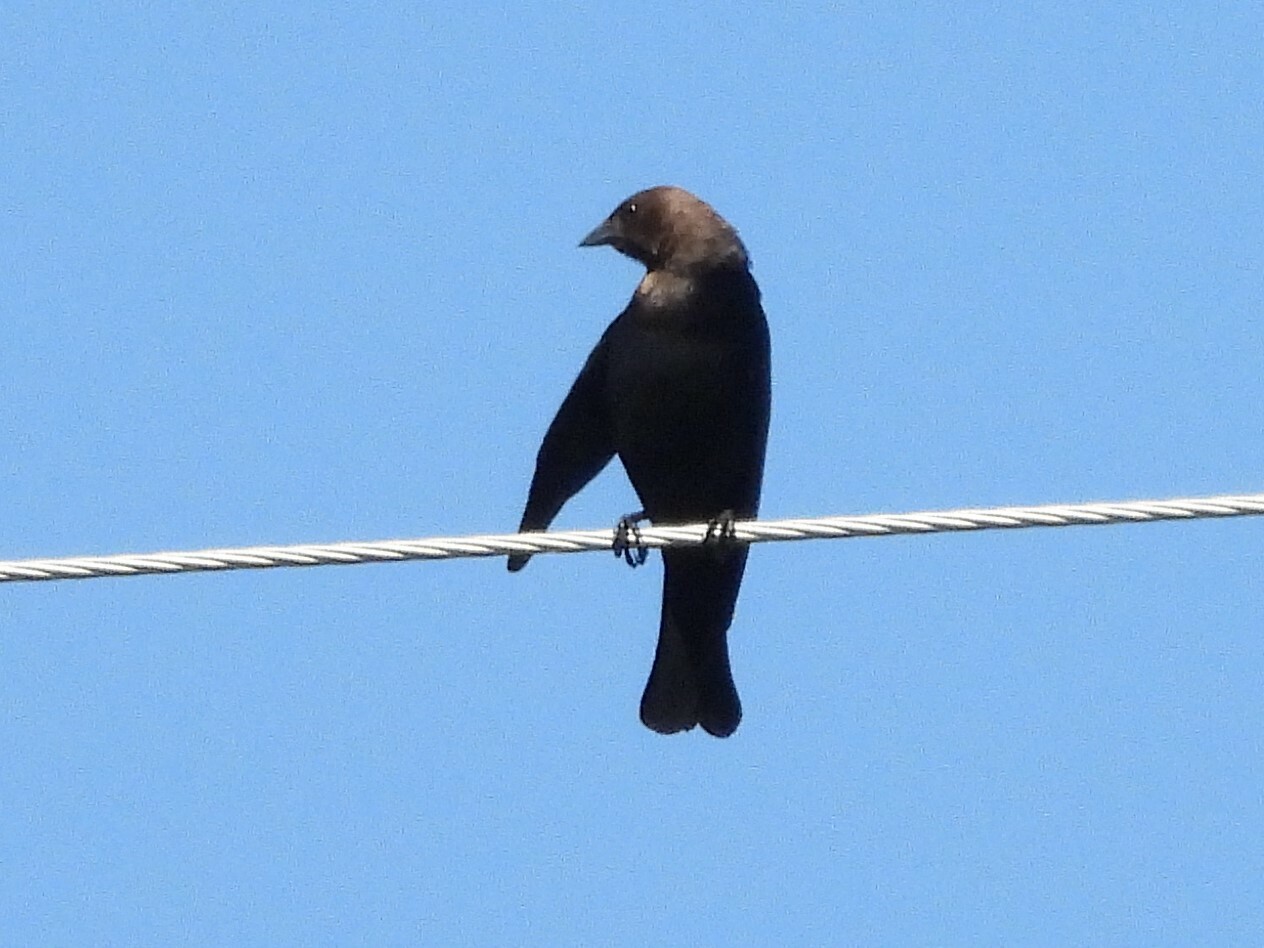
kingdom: Animalia
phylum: Chordata
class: Aves
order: Passeriformes
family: Icteridae
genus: Molothrus
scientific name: Molothrus ater
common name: Brown-headed cowbird
